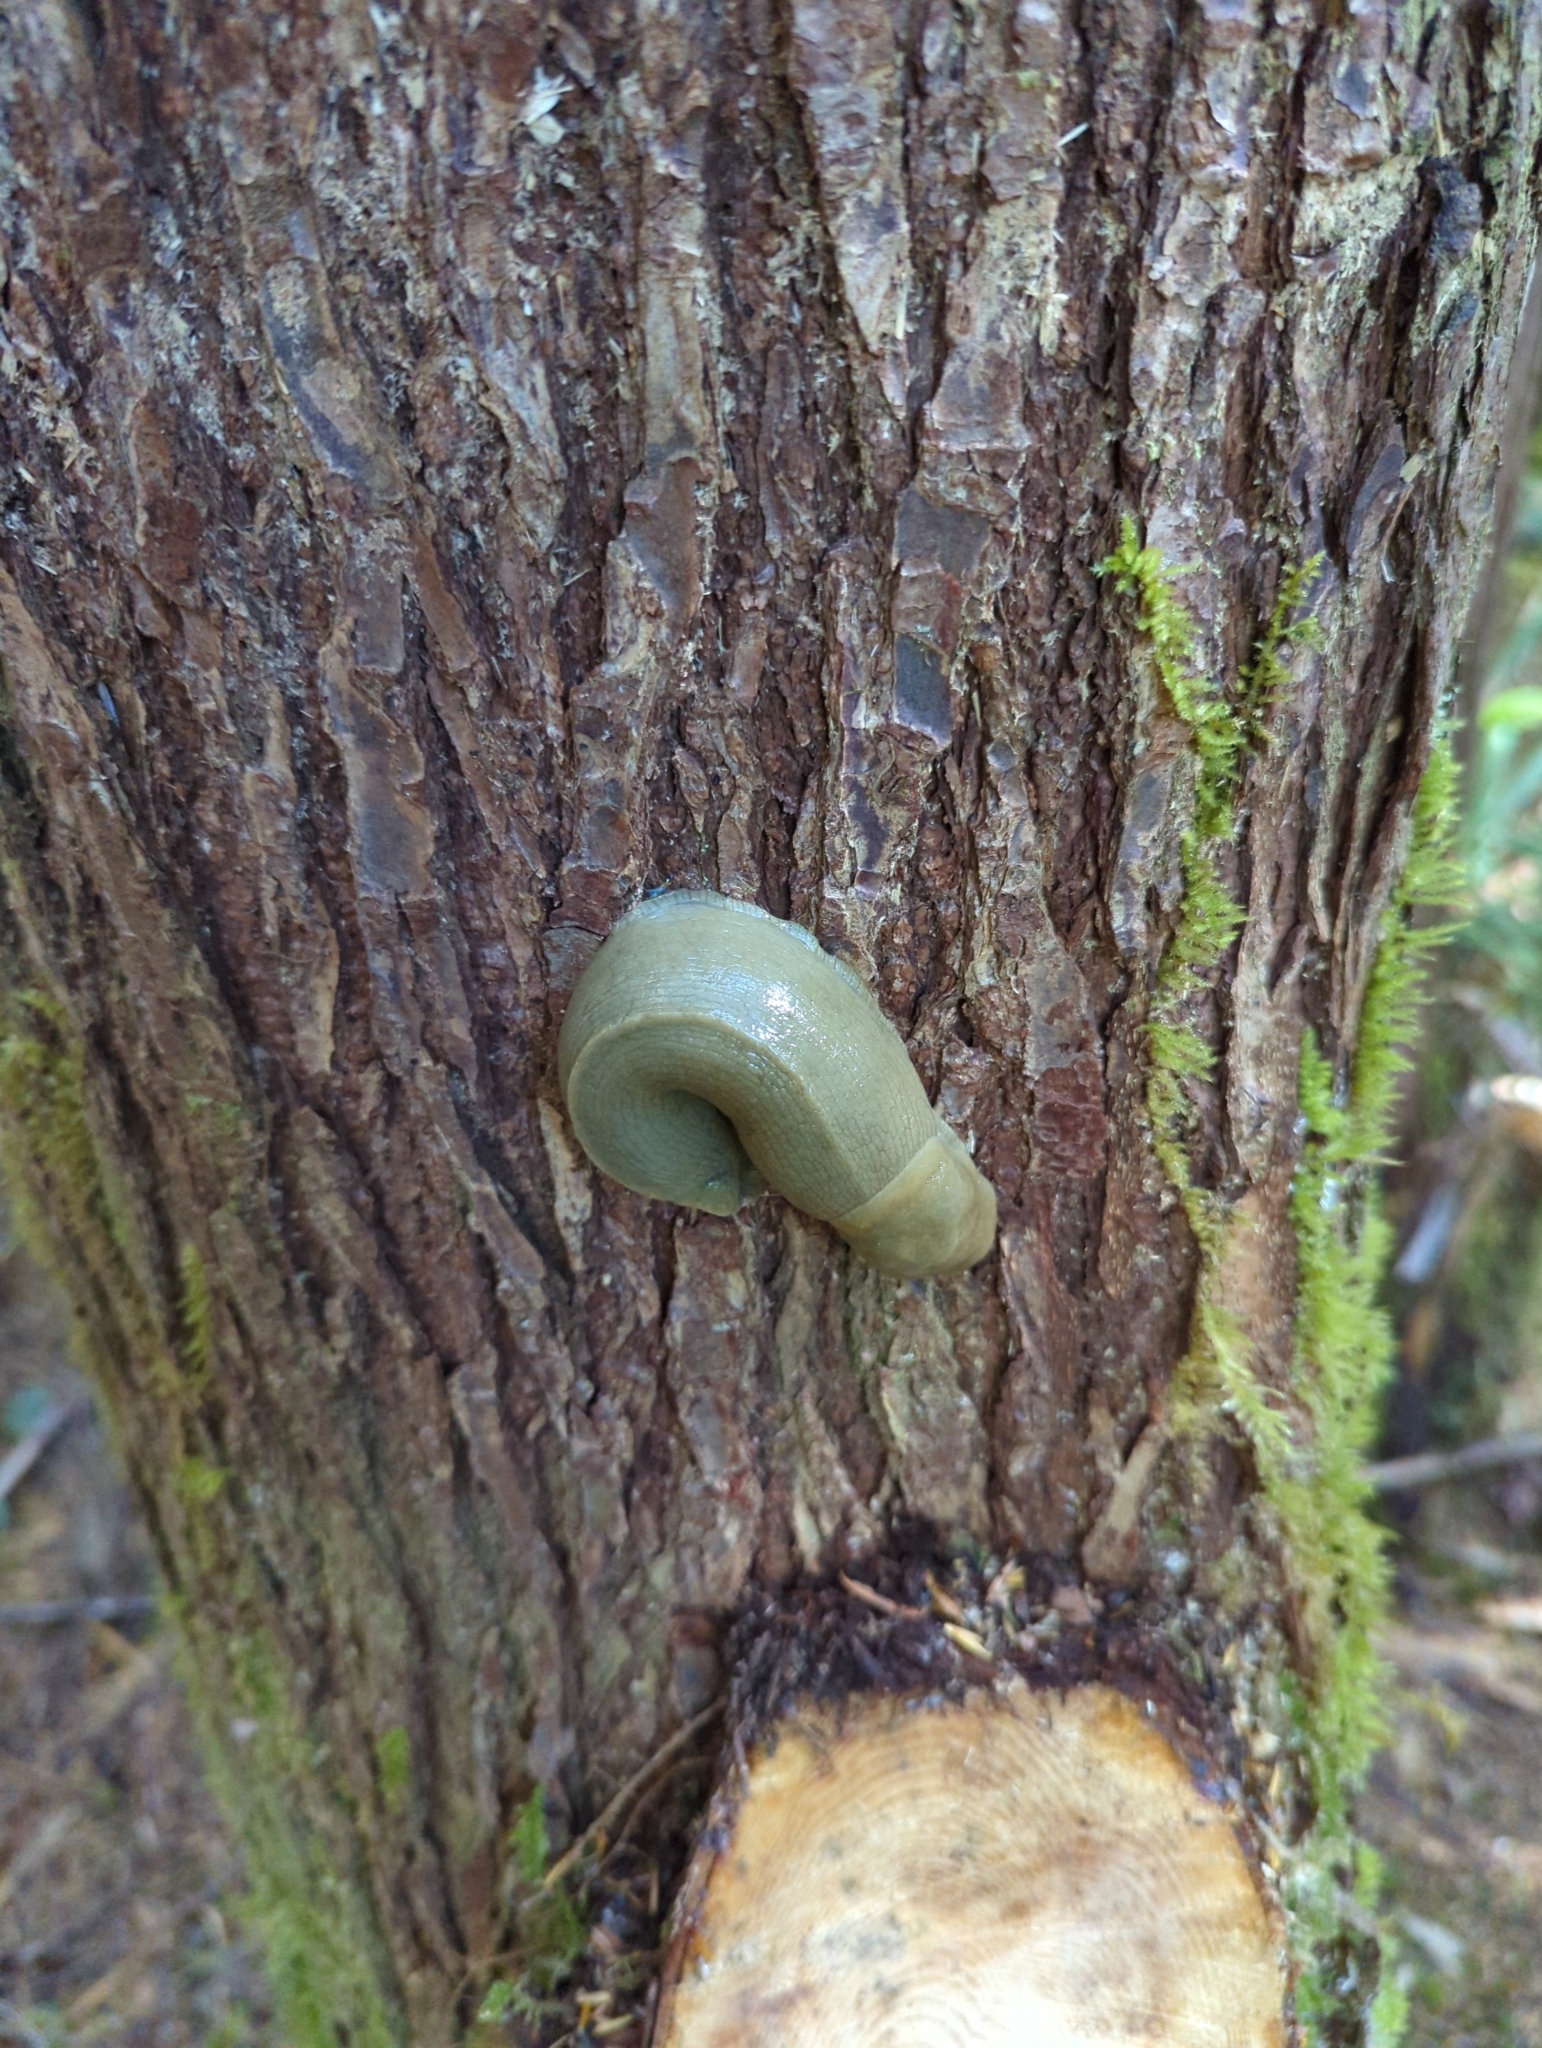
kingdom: Animalia
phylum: Mollusca
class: Gastropoda
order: Stylommatophora
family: Ariolimacidae
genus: Ariolimax
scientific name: Ariolimax columbianus
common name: Pacific banana slug
